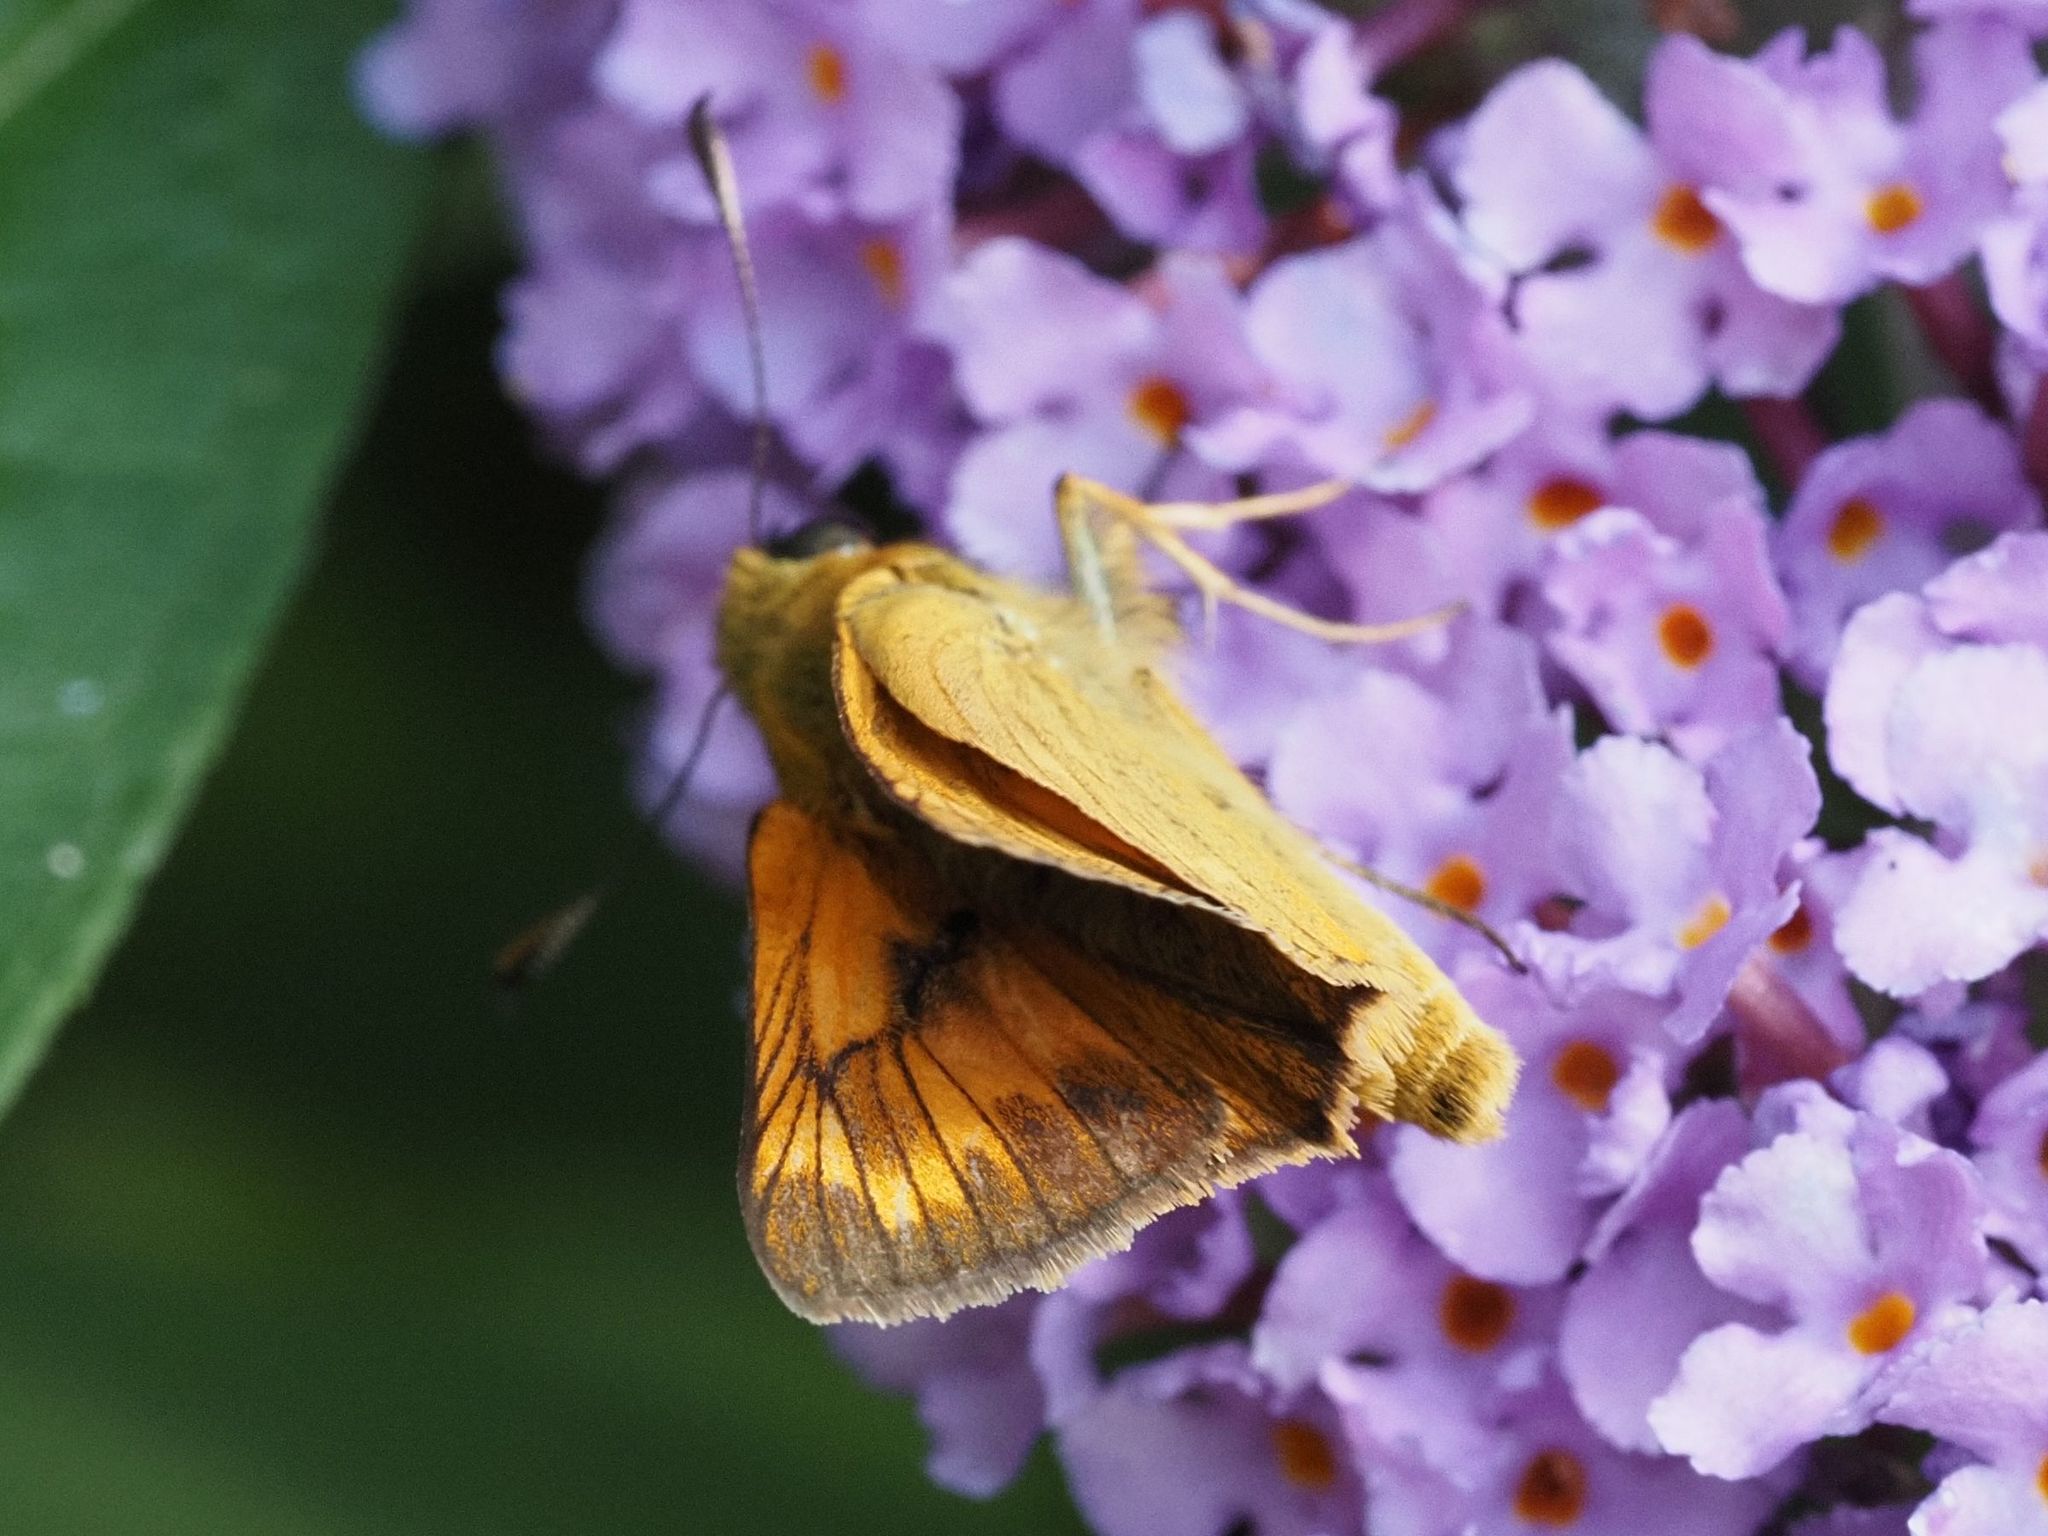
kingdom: Animalia
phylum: Arthropoda
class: Insecta
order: Lepidoptera
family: Hesperiidae
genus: Ochlodes
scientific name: Ochlodes venata
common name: Large skipper
